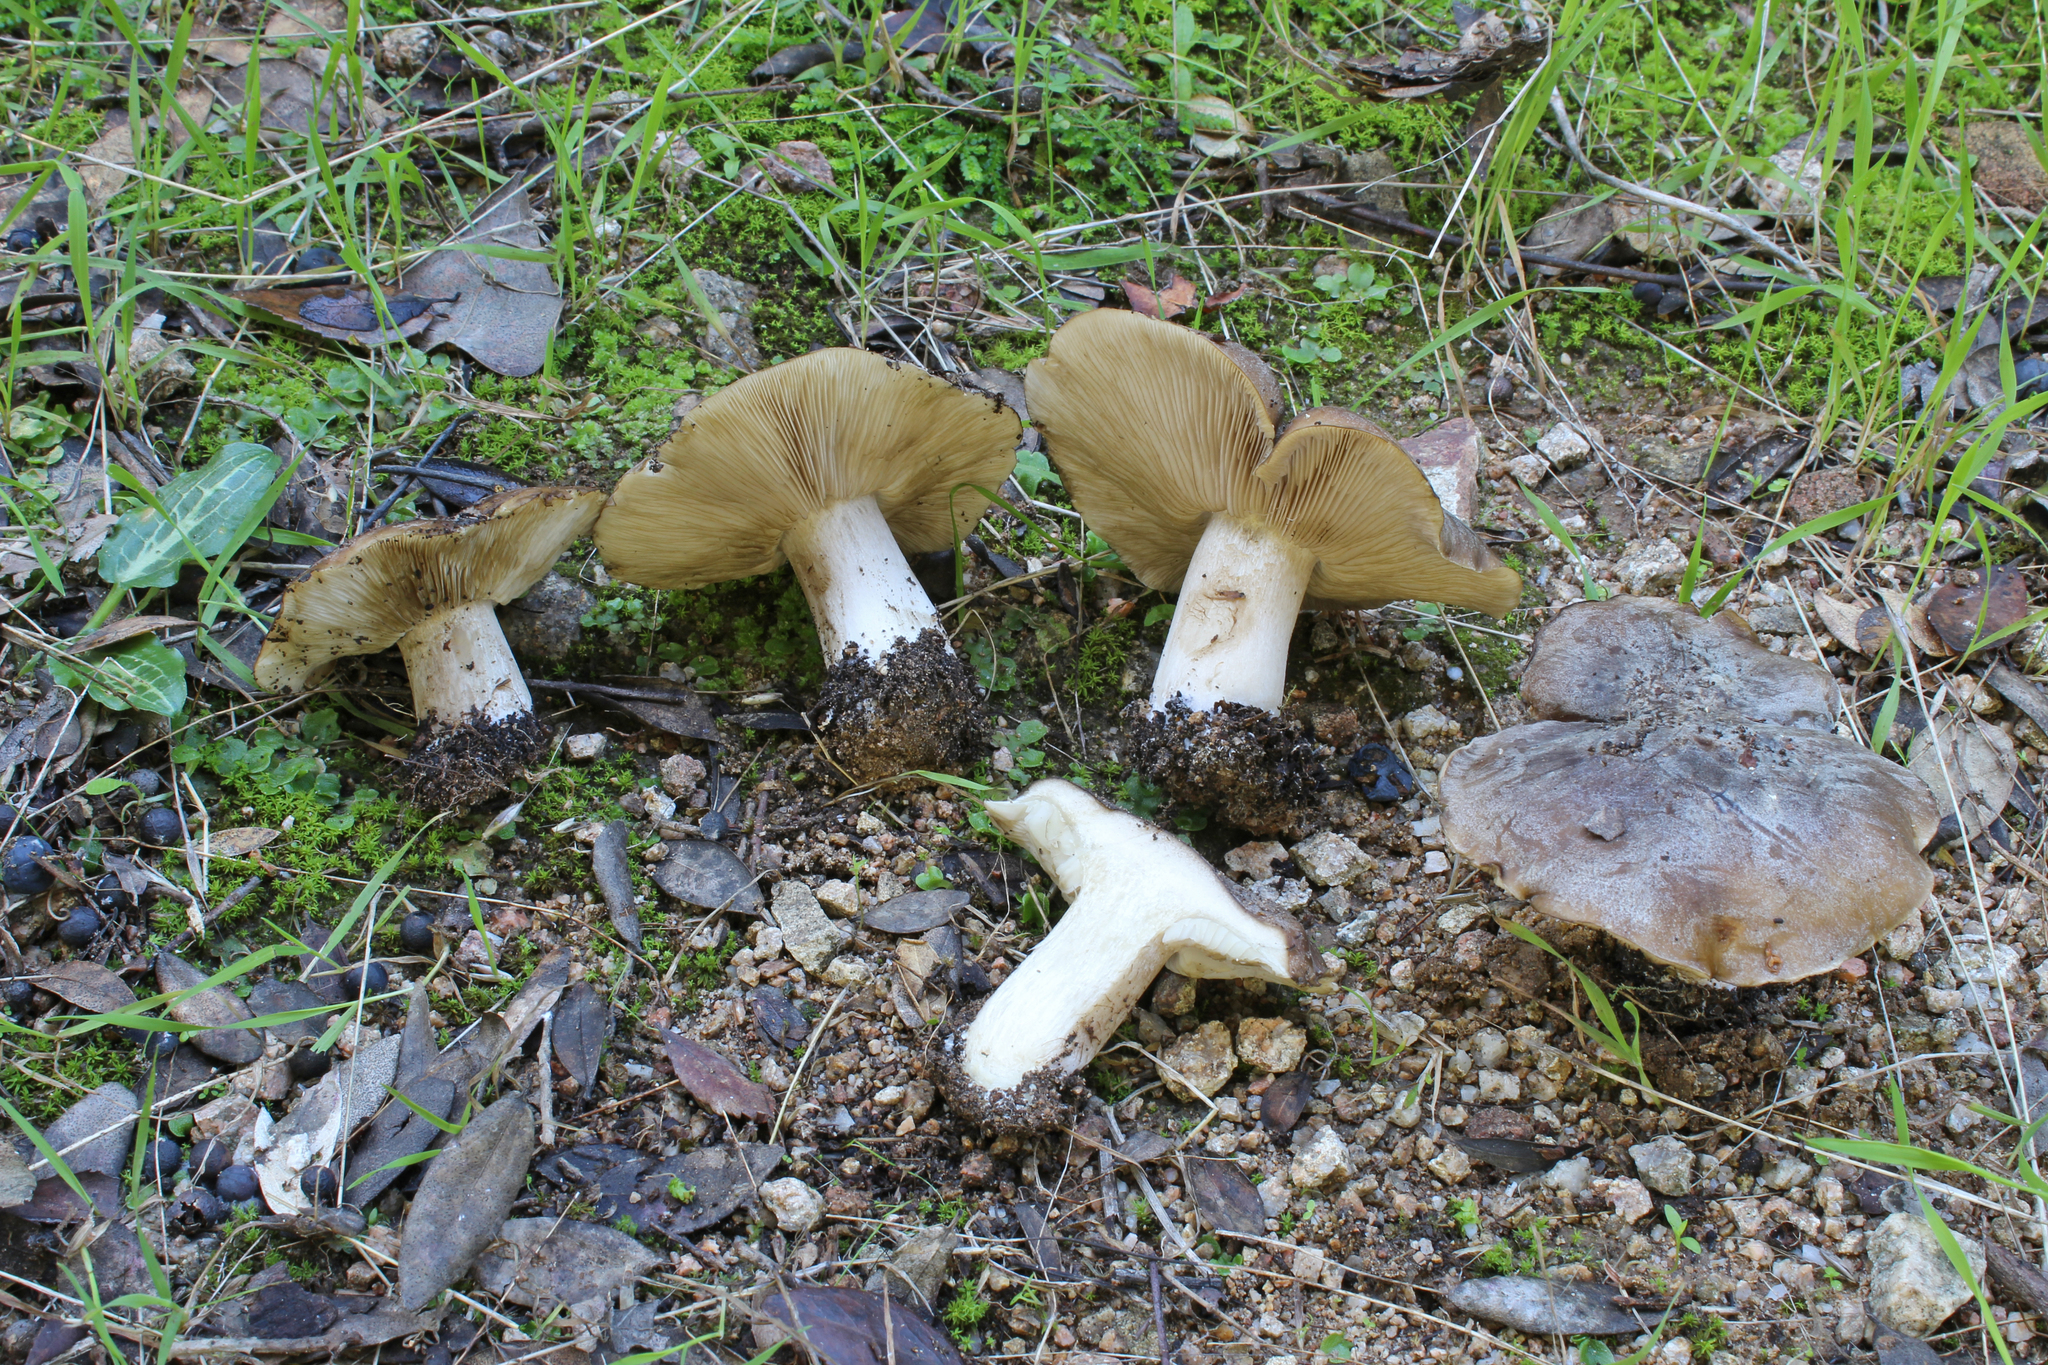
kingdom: Fungi
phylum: Basidiomycota
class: Agaricomycetes
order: Agaricales
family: Tricholomataceae
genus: Tricholosporum
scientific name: Tricholosporum cossonianum
